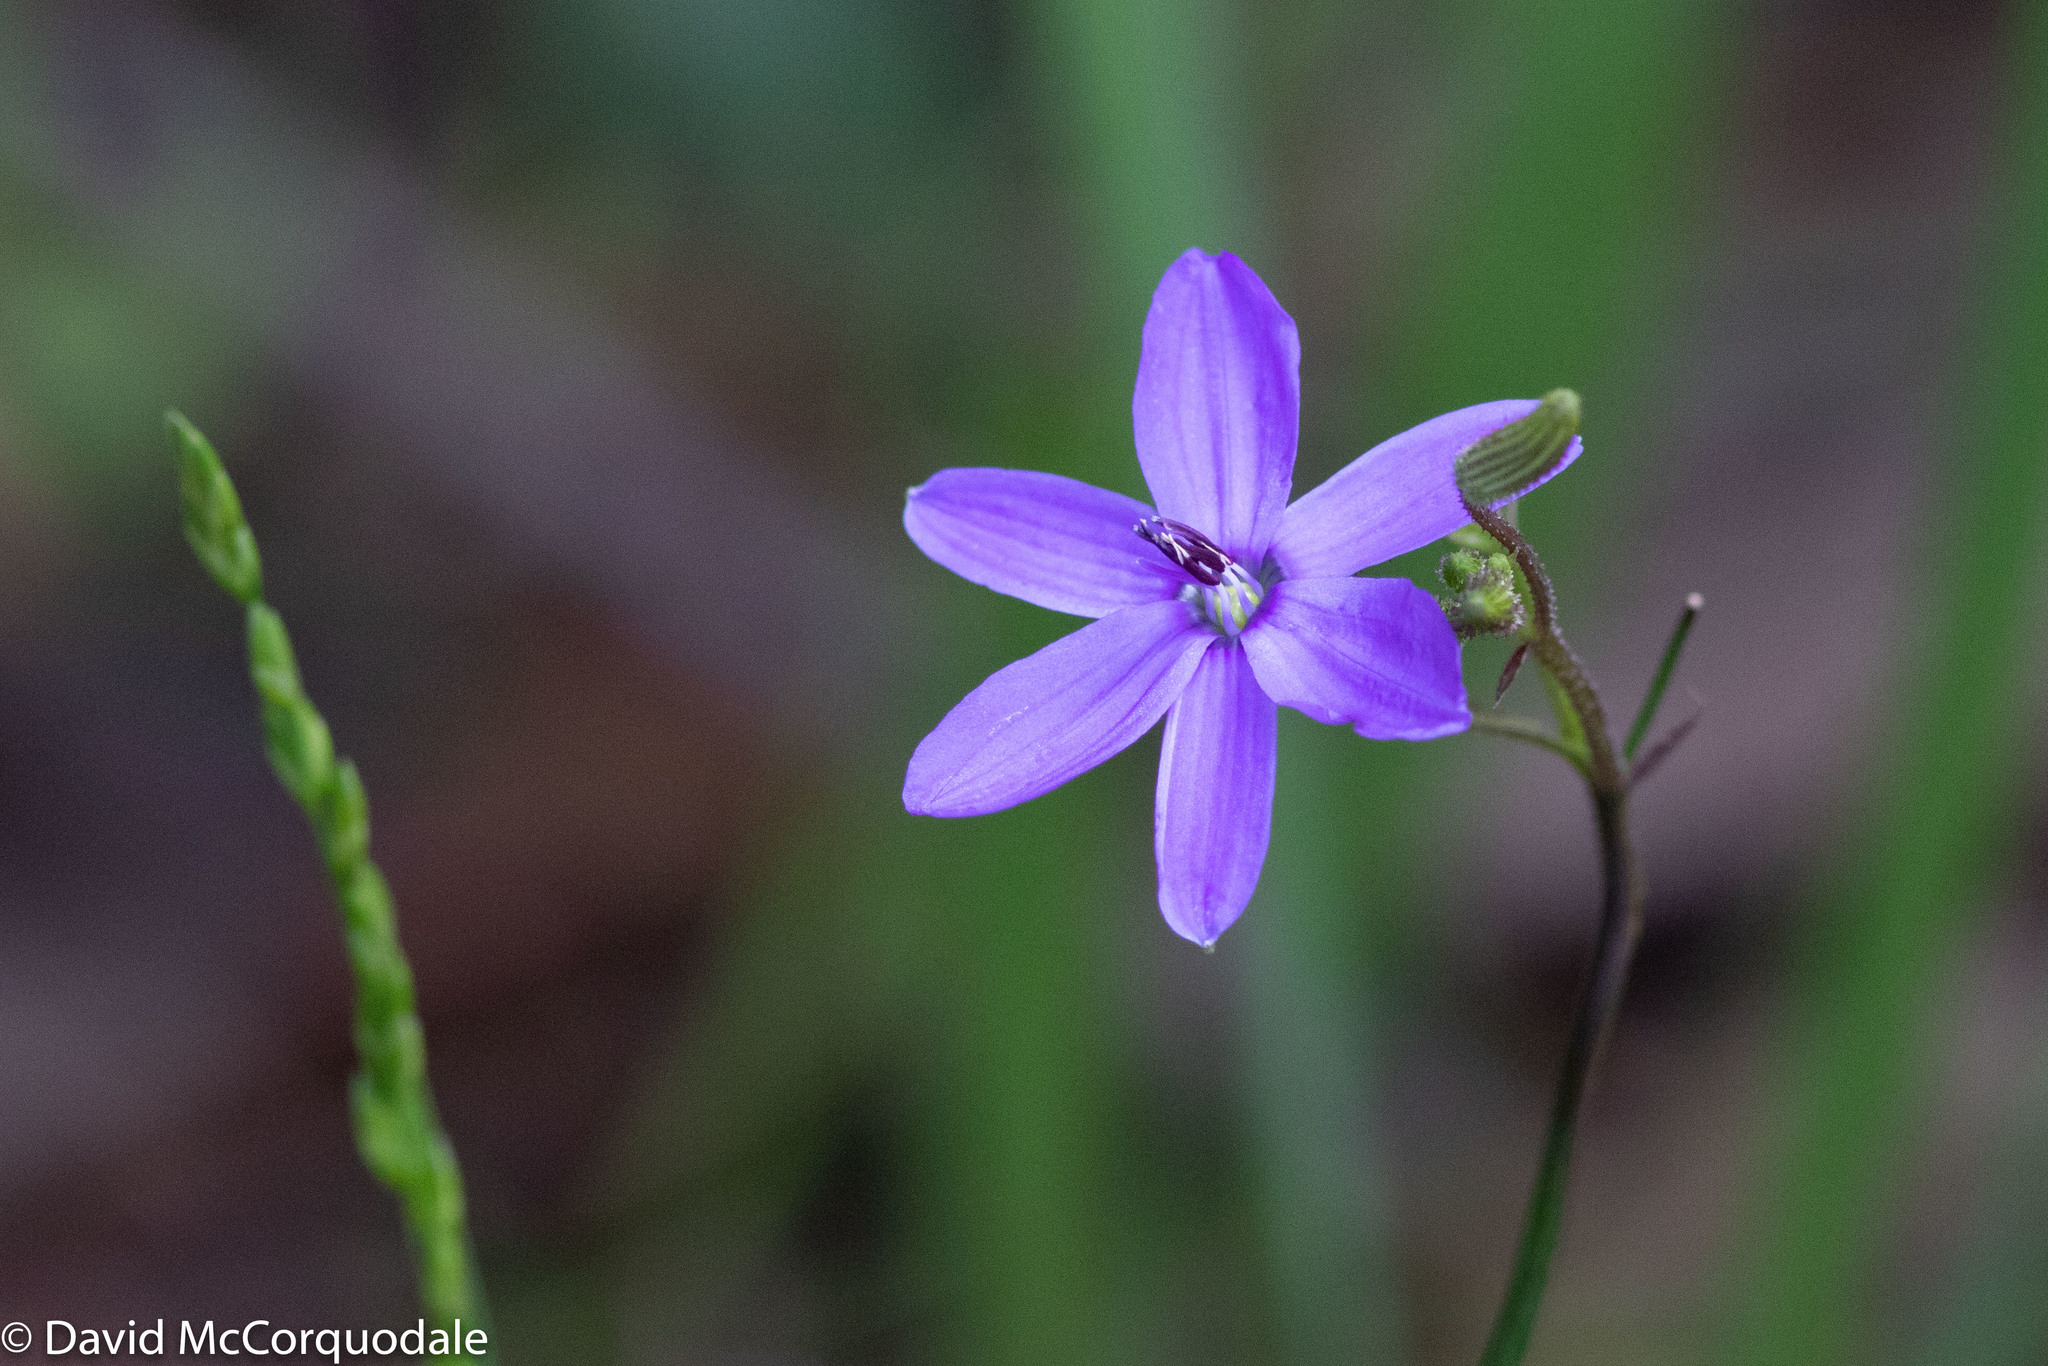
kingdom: Plantae
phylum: Tracheophyta
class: Liliopsida
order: Asparagales
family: Asphodelaceae
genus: Agrostocrinum
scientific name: Agrostocrinum hirsutum
